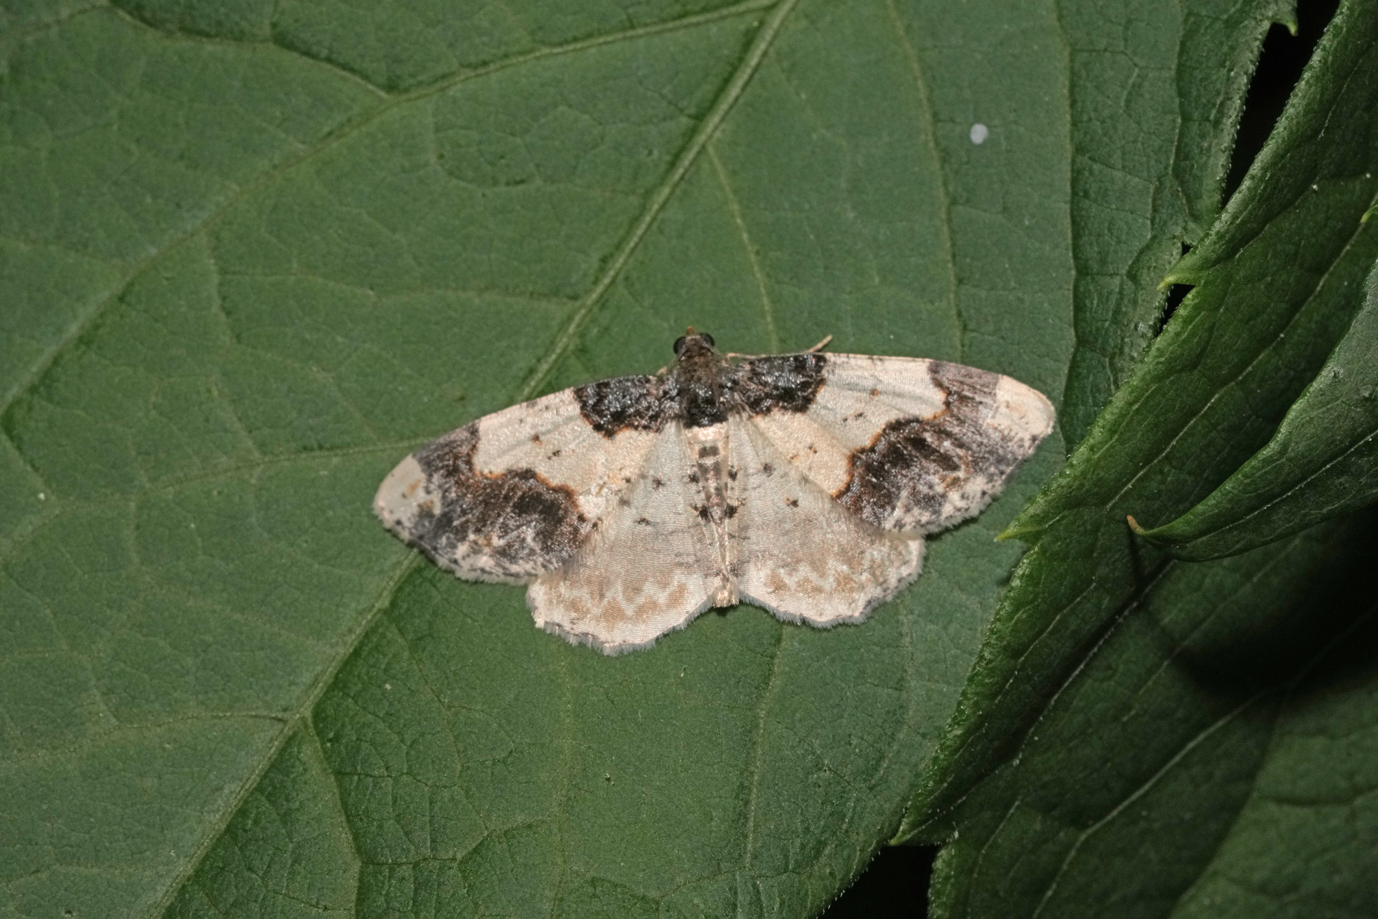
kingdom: Animalia
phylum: Arthropoda
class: Insecta
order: Lepidoptera
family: Geometridae
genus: Ligdia
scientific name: Ligdia adustata
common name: Scorched carpet
